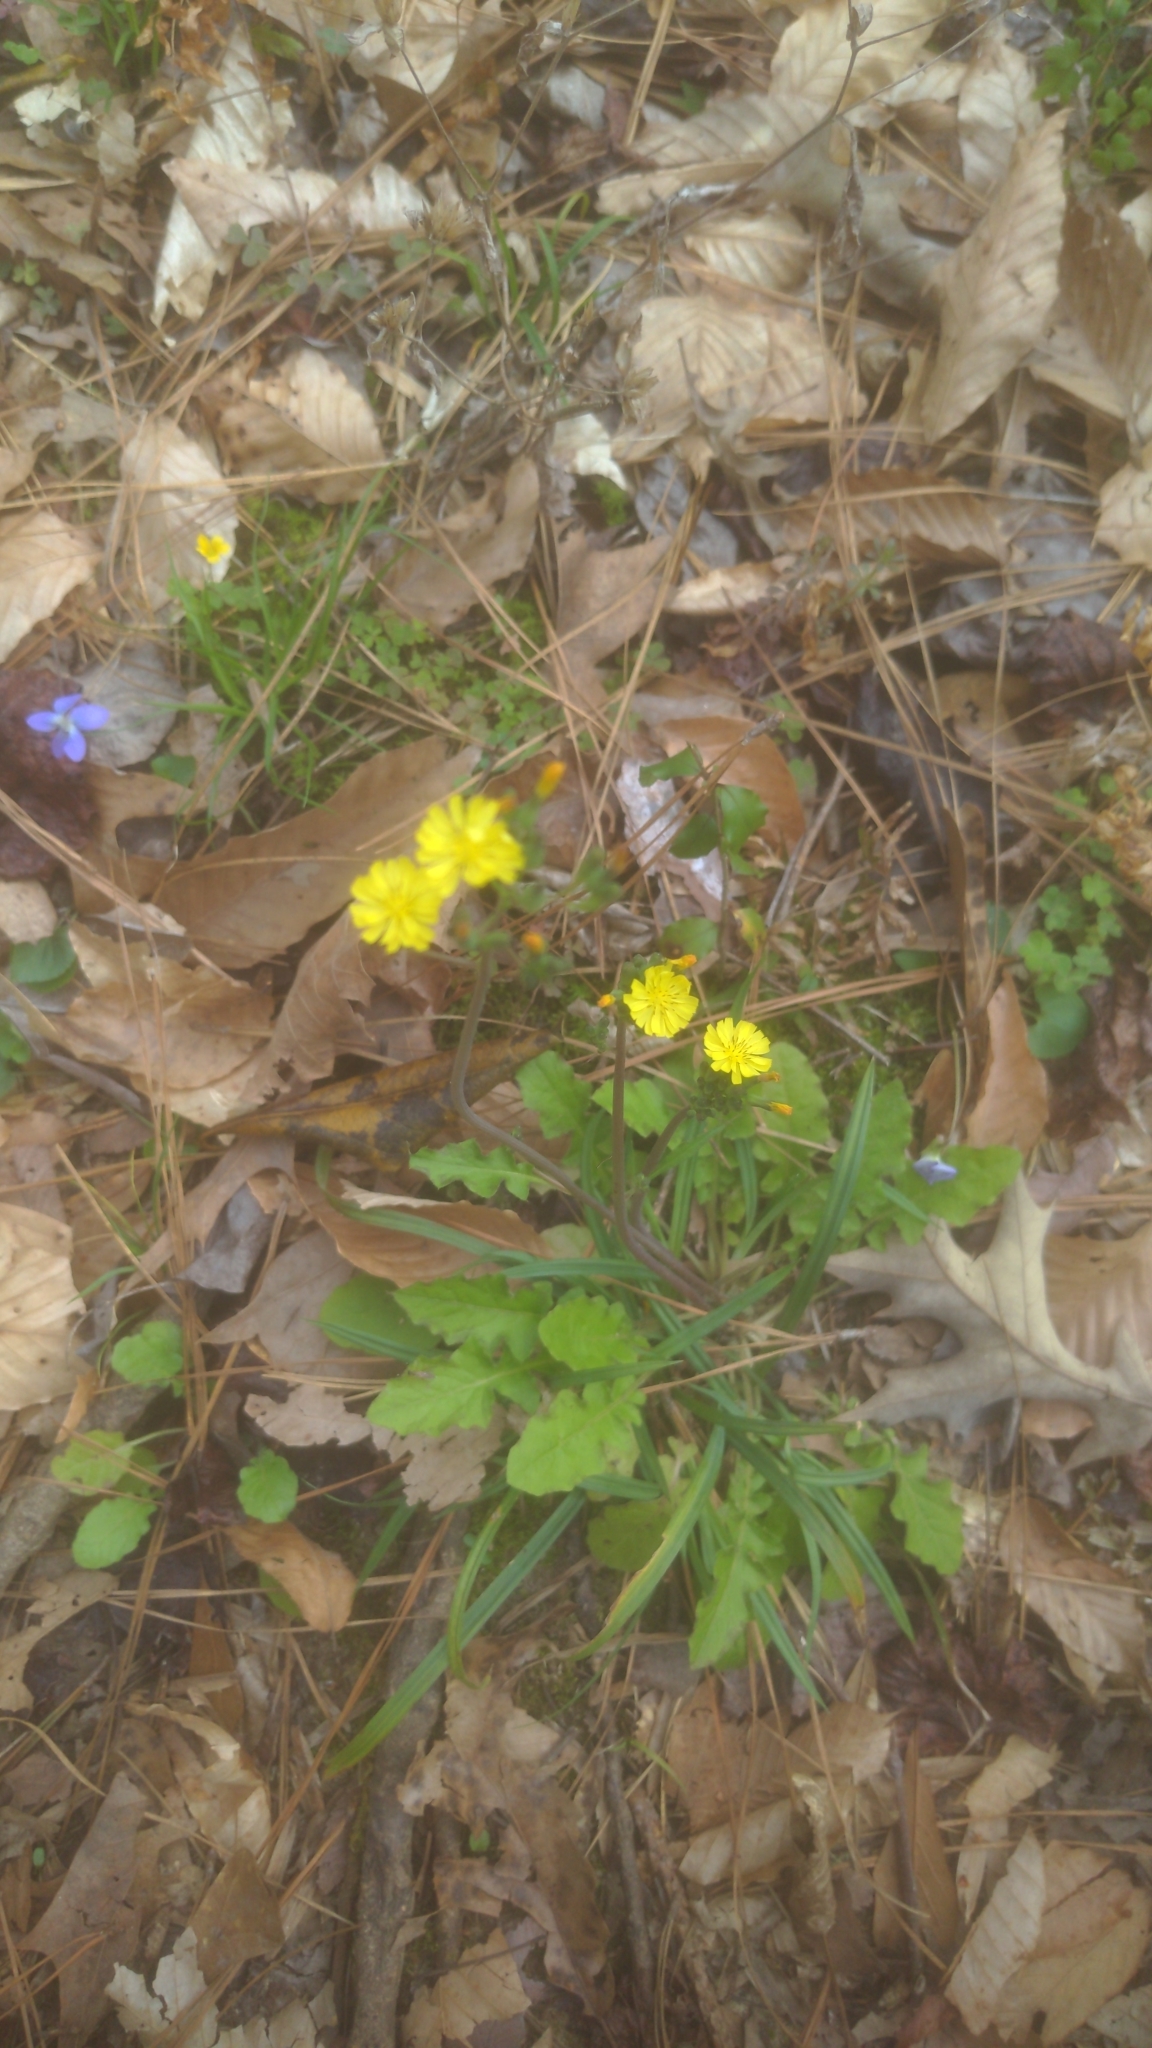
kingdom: Plantae
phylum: Tracheophyta
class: Magnoliopsida
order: Asterales
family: Asteraceae
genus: Youngia
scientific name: Youngia japonica
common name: Oriental false hawksbeard
